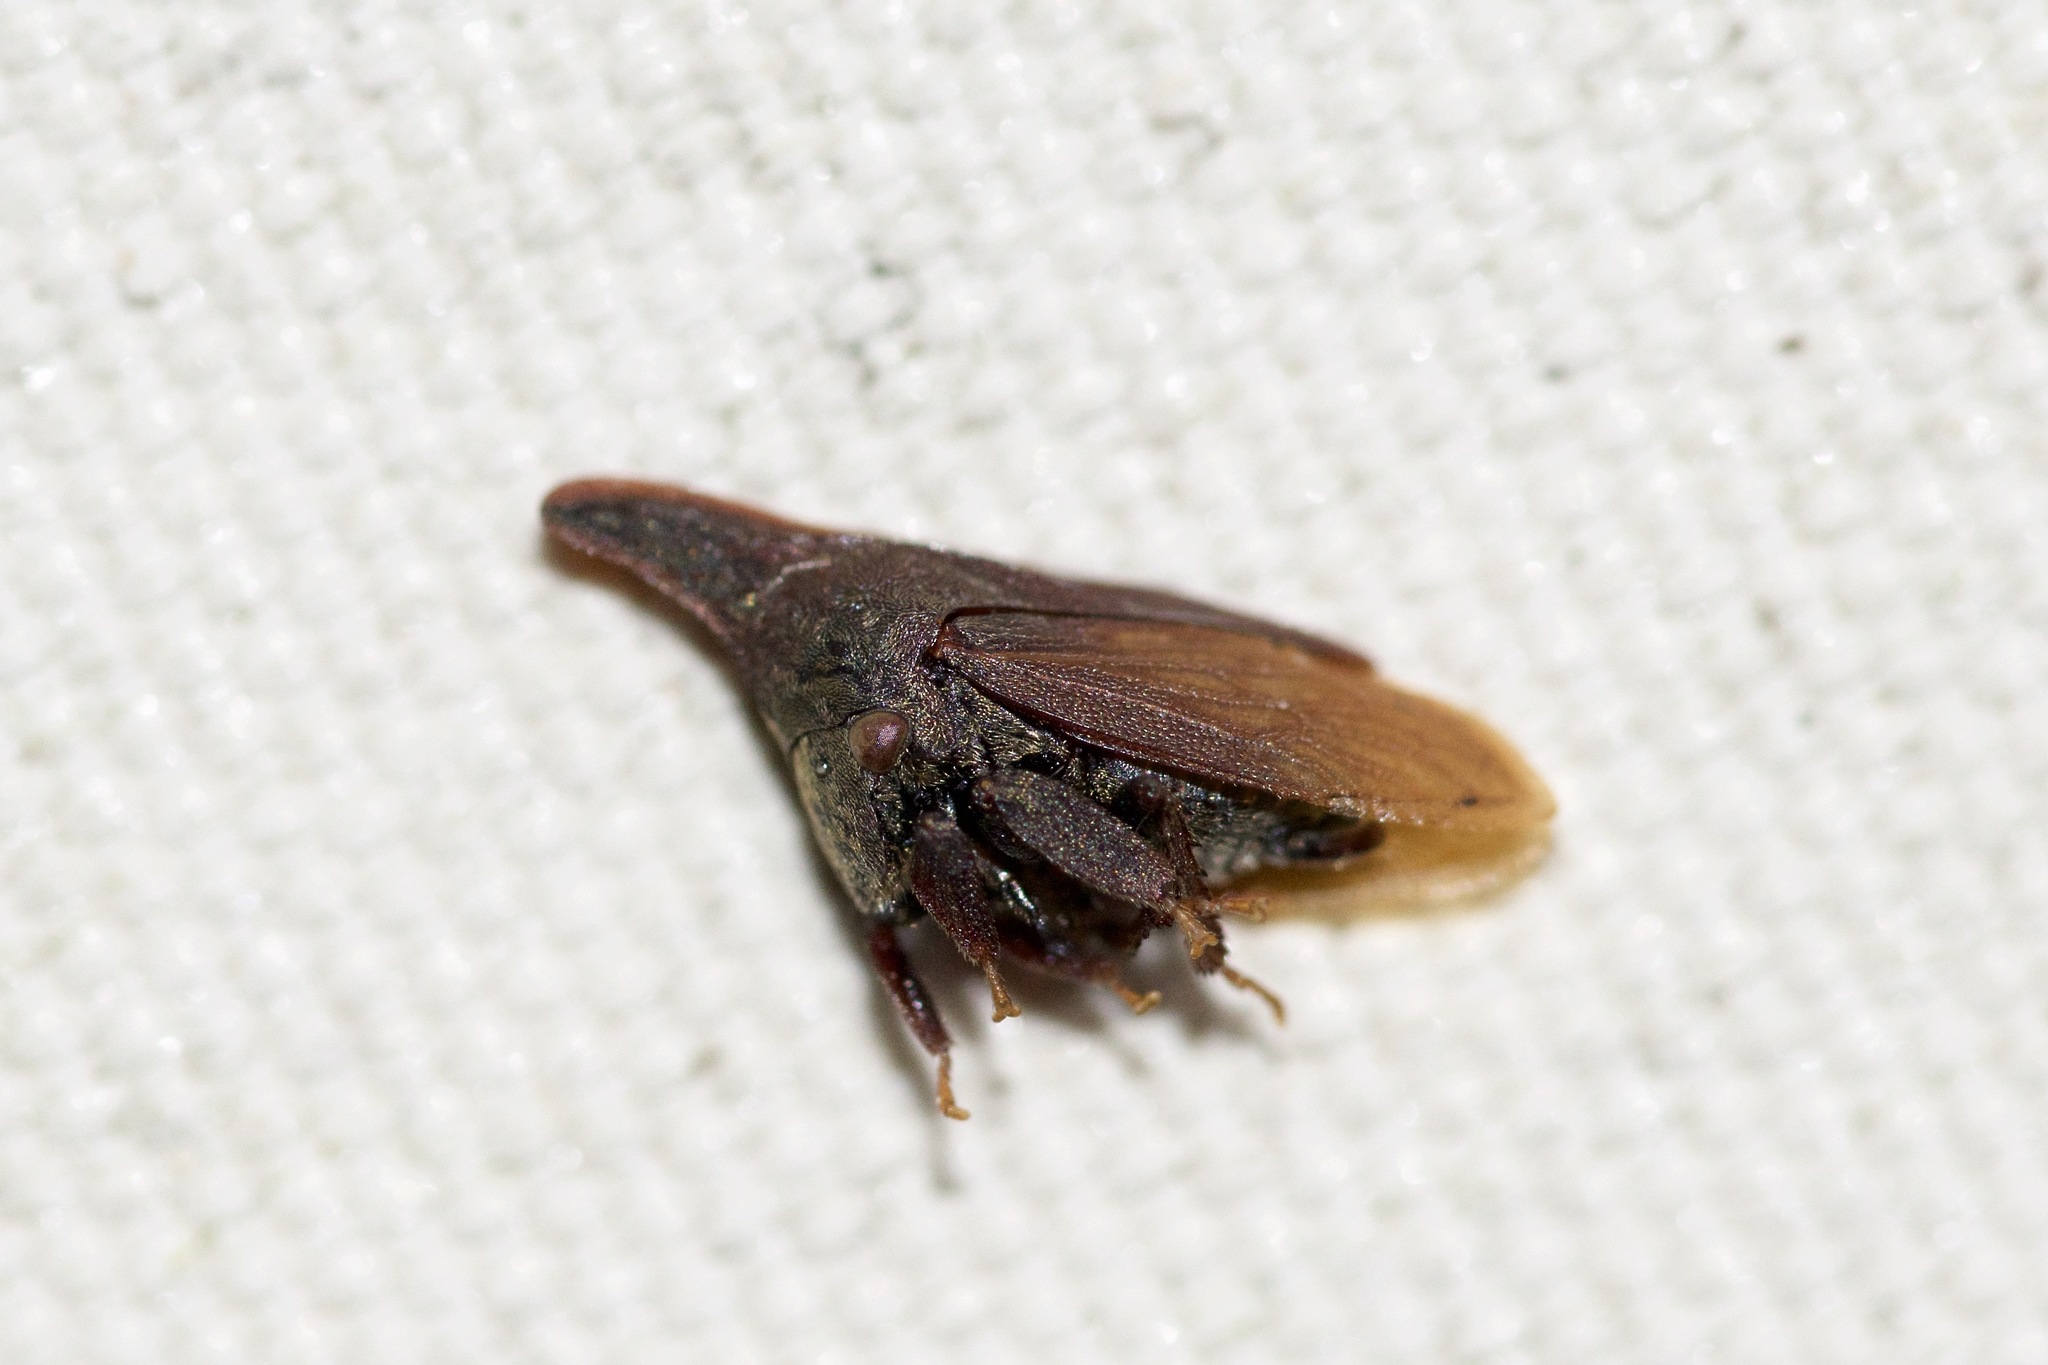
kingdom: Animalia
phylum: Arthropoda
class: Insecta
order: Hemiptera
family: Membracidae
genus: Enchenopa
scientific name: Enchenopa latipes
